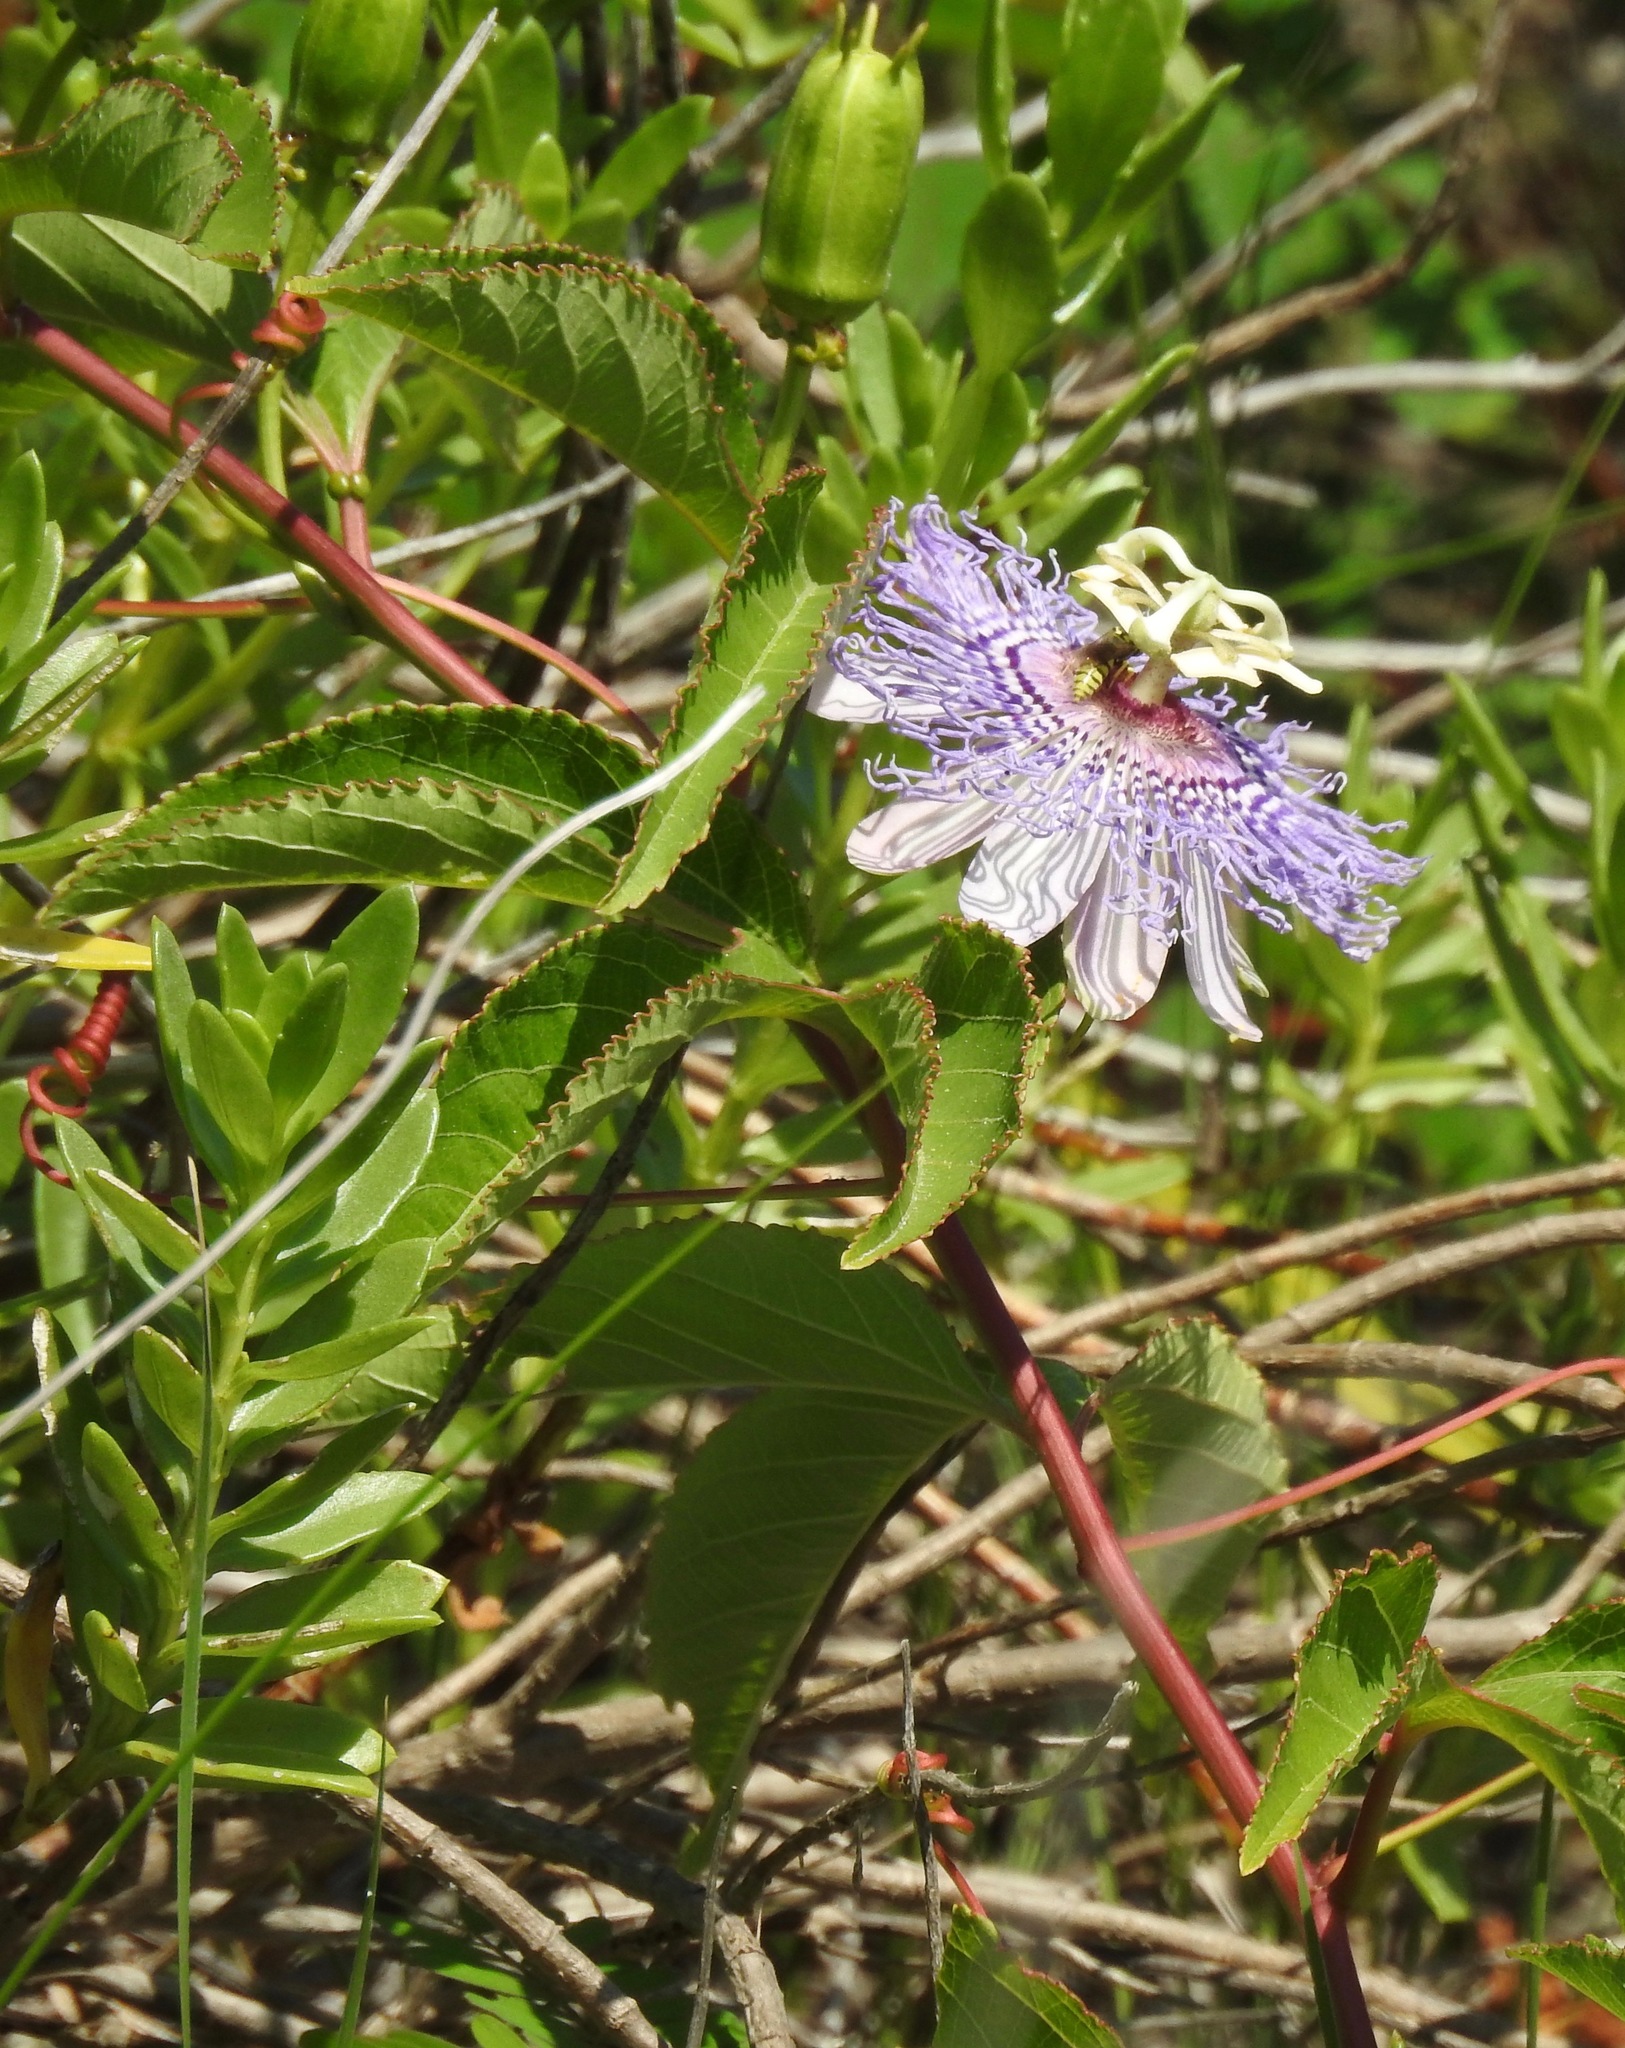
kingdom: Plantae
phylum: Tracheophyta
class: Magnoliopsida
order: Malpighiales
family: Passifloraceae
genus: Passiflora
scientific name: Passiflora incarnata
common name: Apricot-vine
